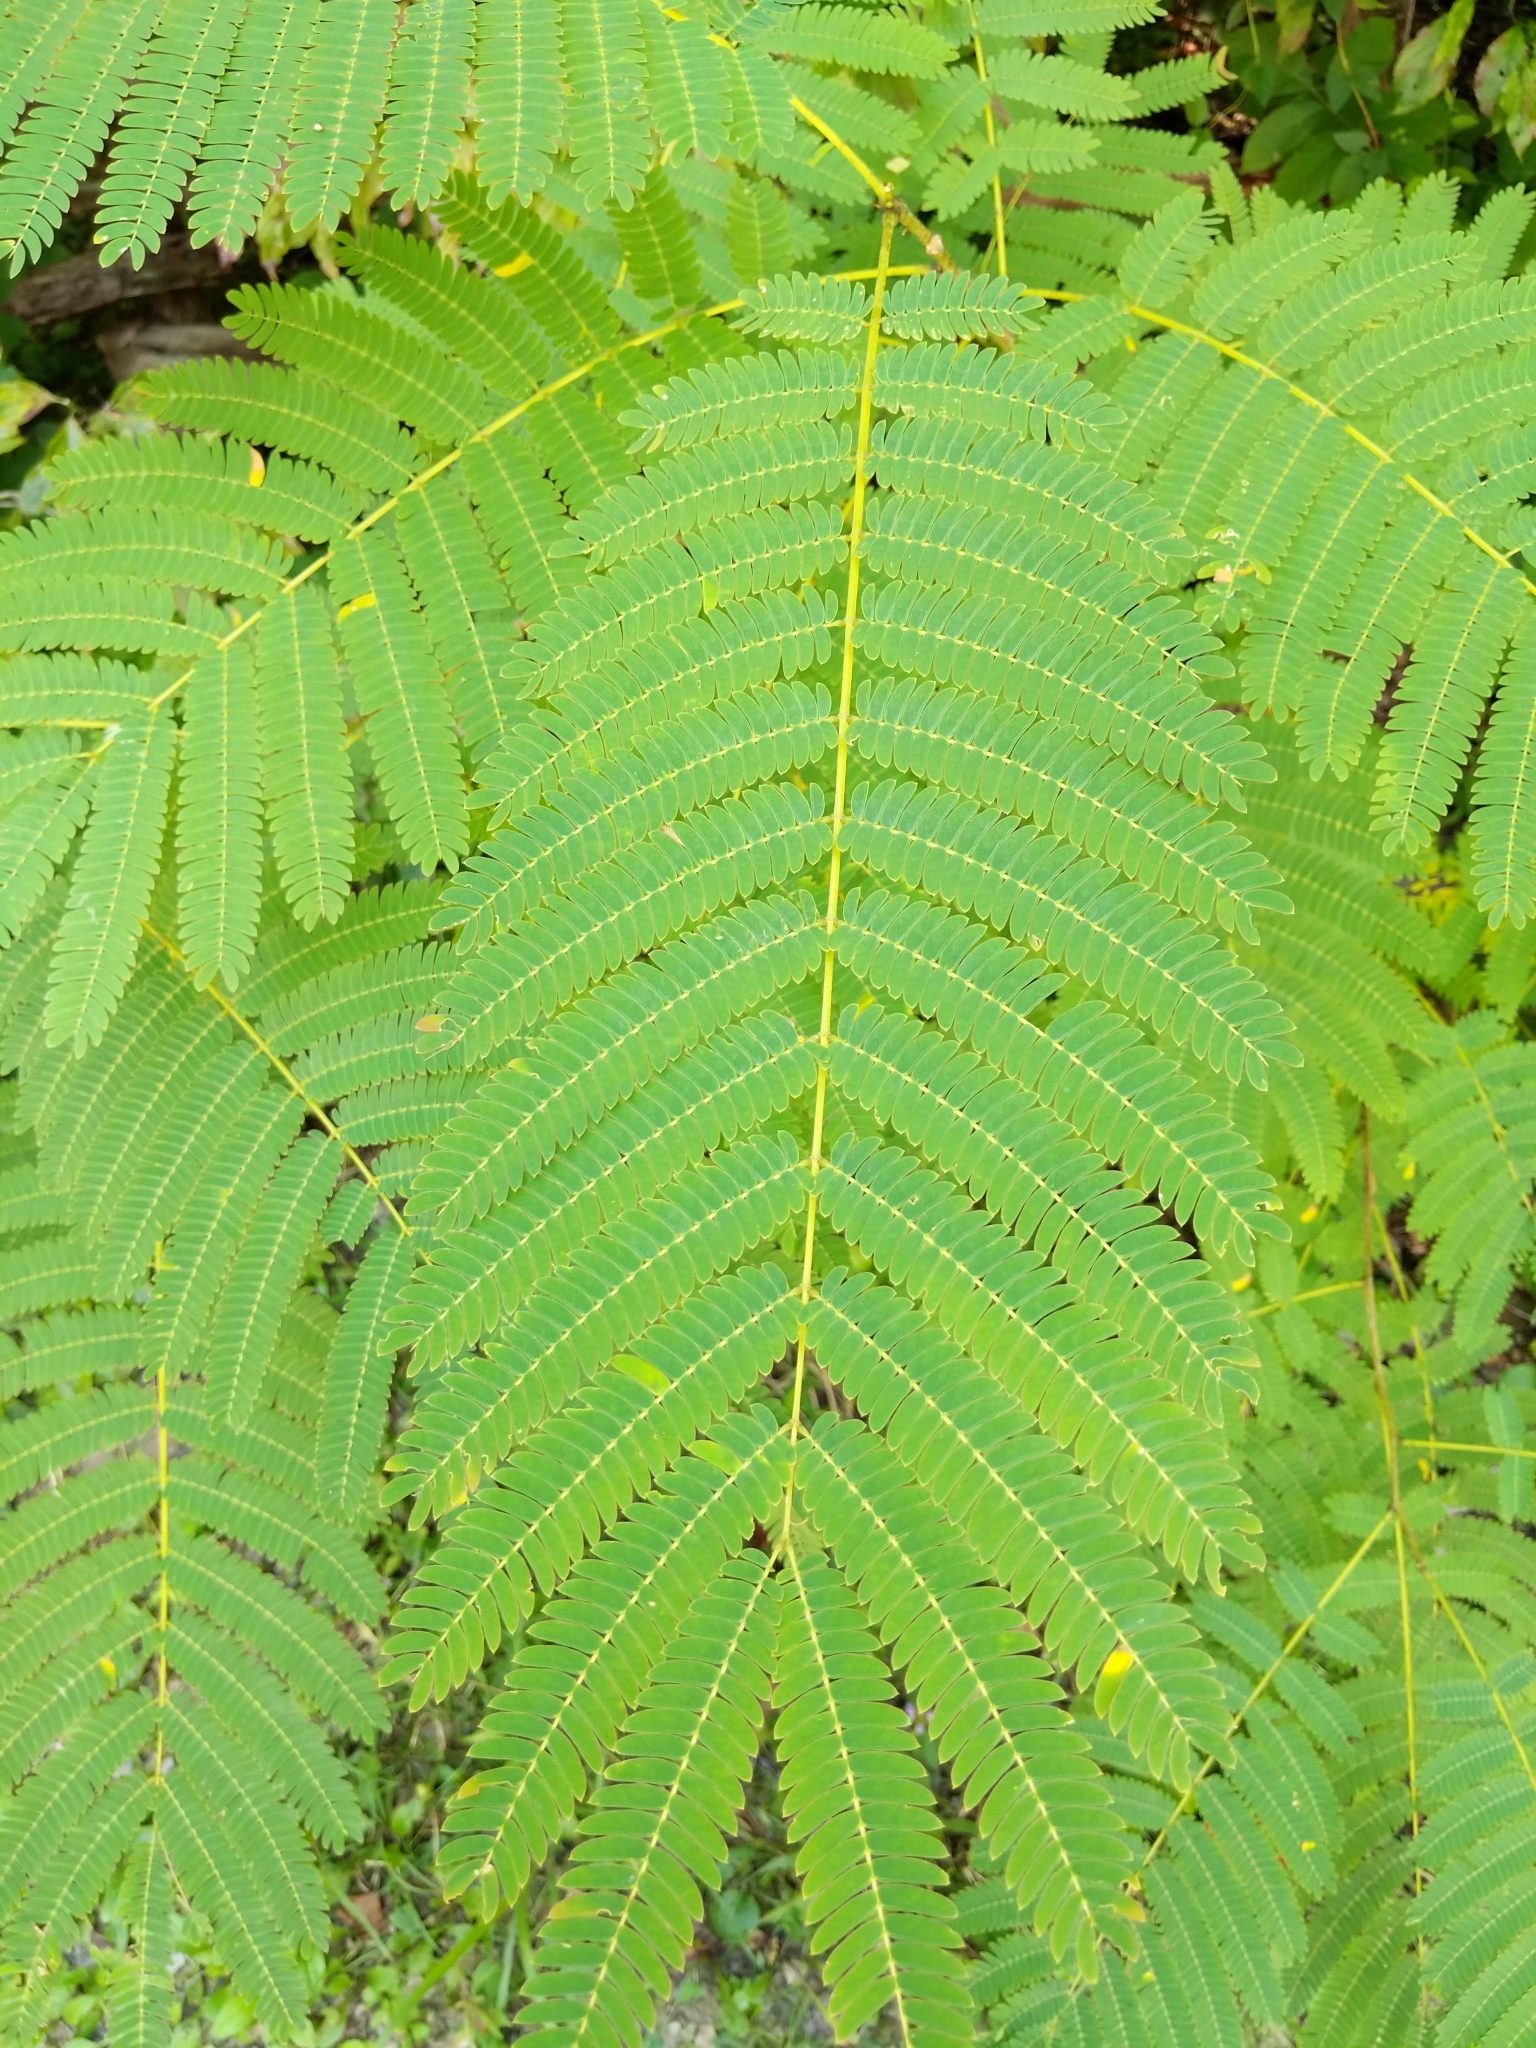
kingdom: Plantae
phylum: Tracheophyta
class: Magnoliopsida
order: Fabales
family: Fabaceae
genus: Albizia
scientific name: Albizia julibrissin
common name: Silktree
